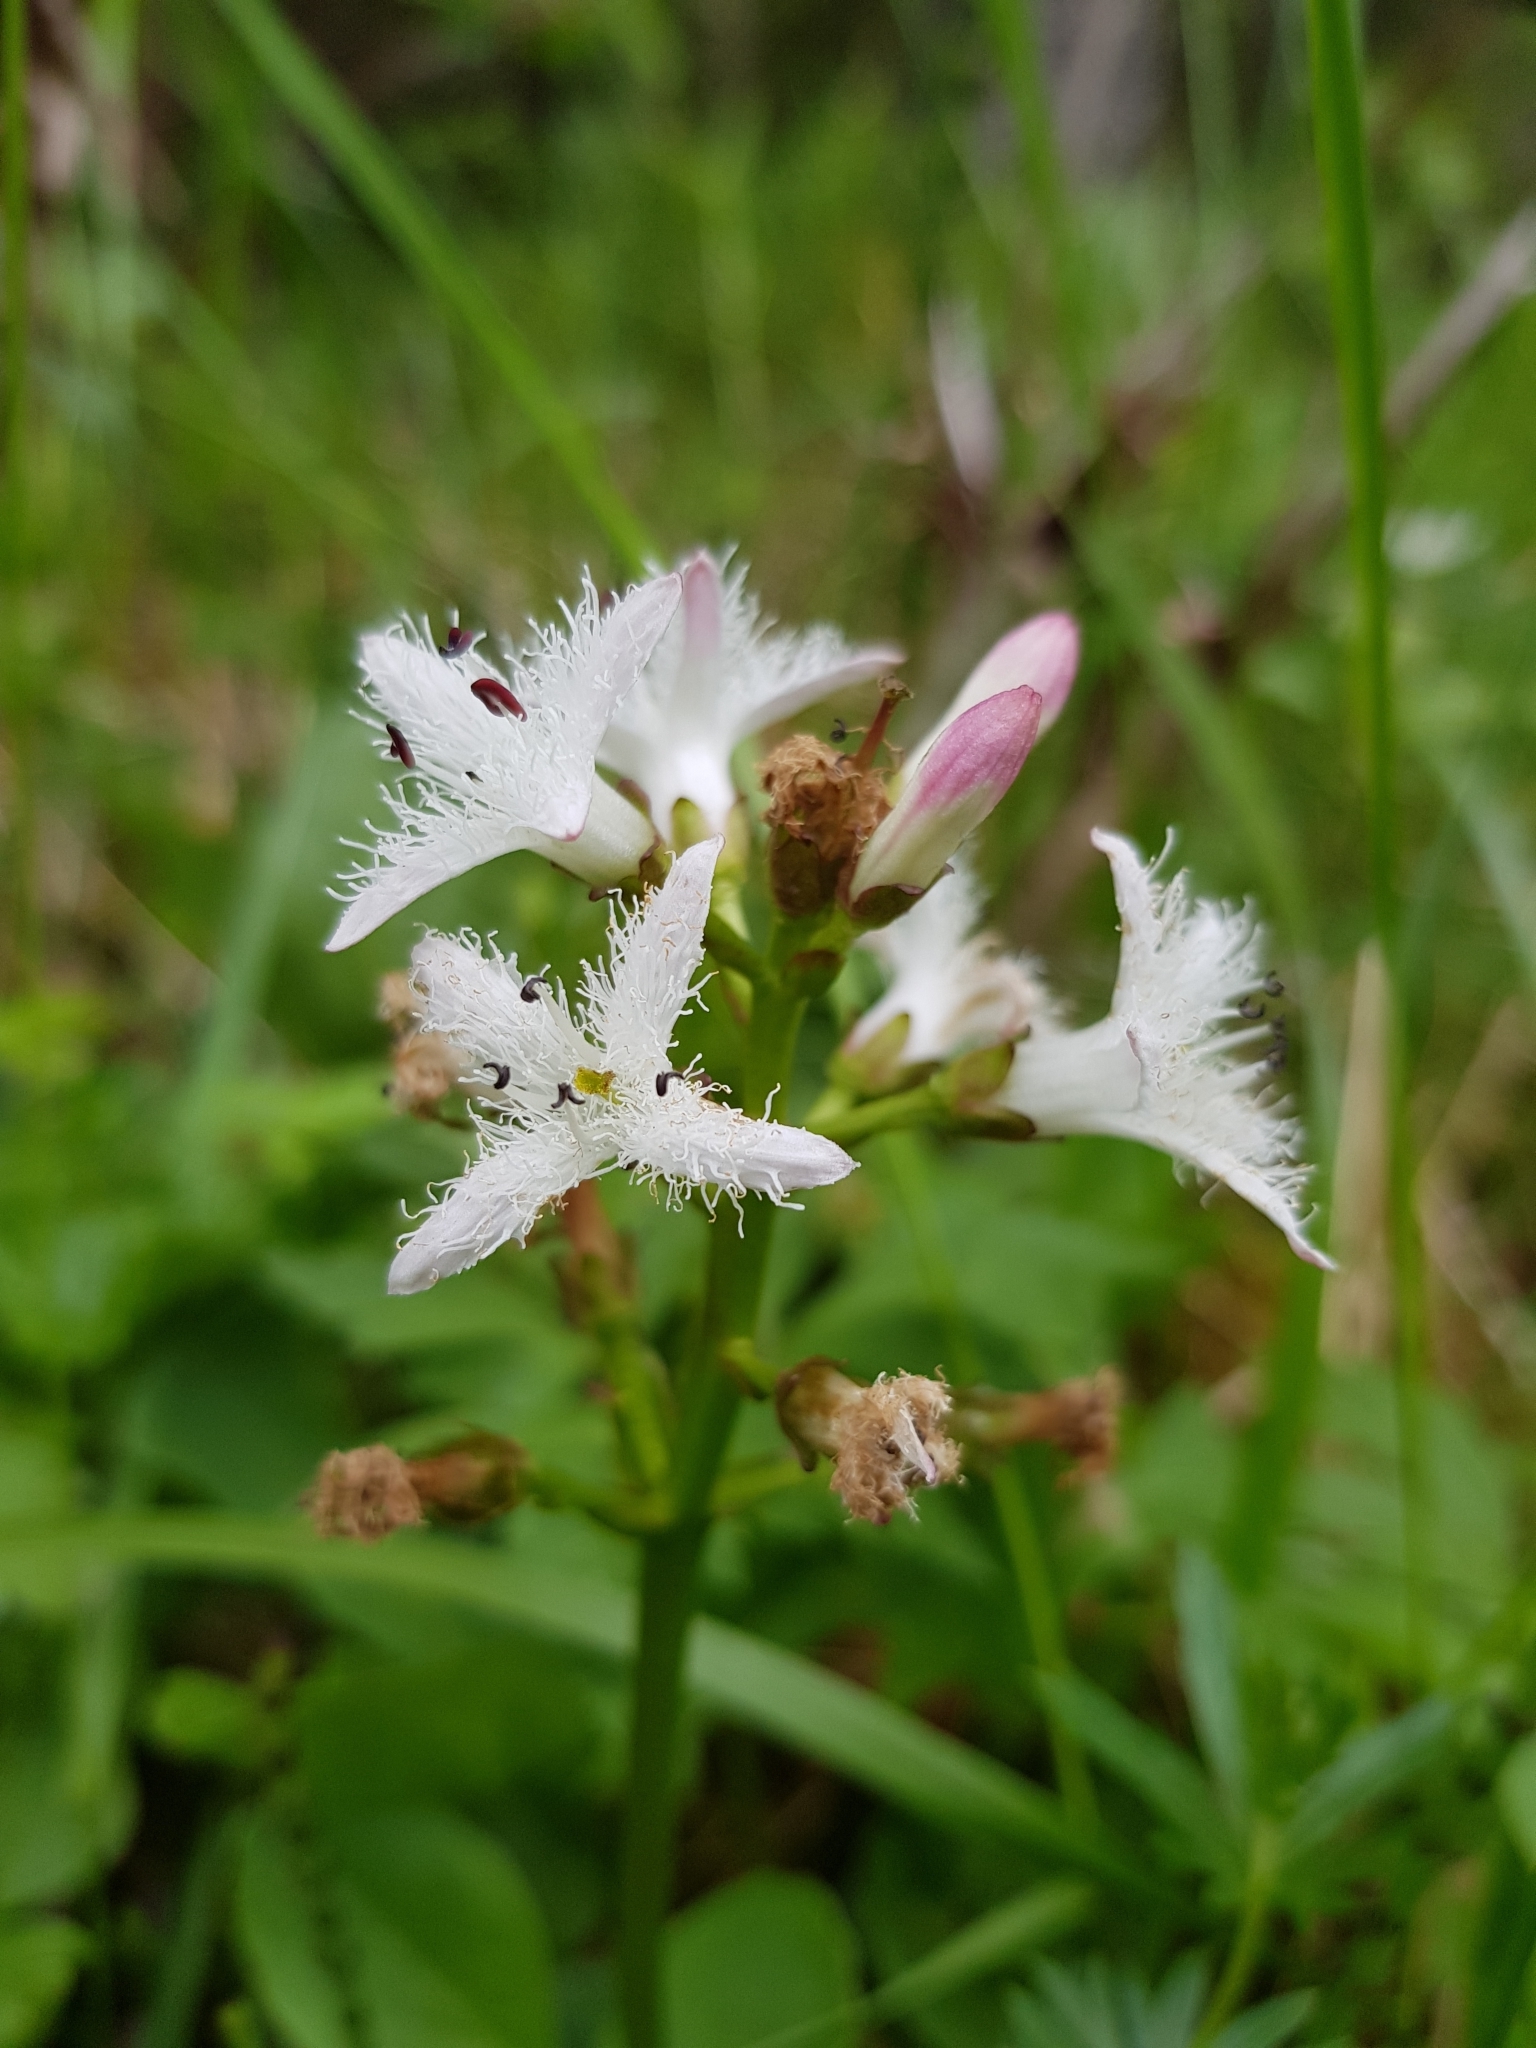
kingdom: Plantae
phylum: Tracheophyta
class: Magnoliopsida
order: Asterales
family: Menyanthaceae
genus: Menyanthes
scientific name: Menyanthes trifoliata
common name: Bogbean
